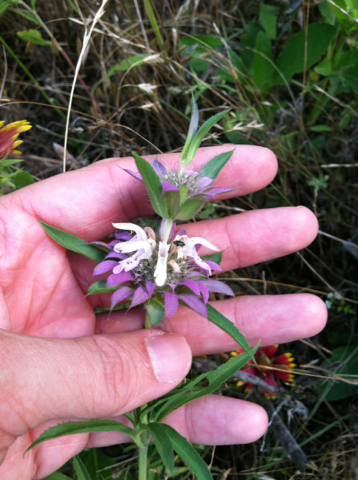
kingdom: Plantae
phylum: Tracheophyta
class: Magnoliopsida
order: Lamiales
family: Lamiaceae
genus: Monarda
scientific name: Monarda citriodora
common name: Lemon beebalm
